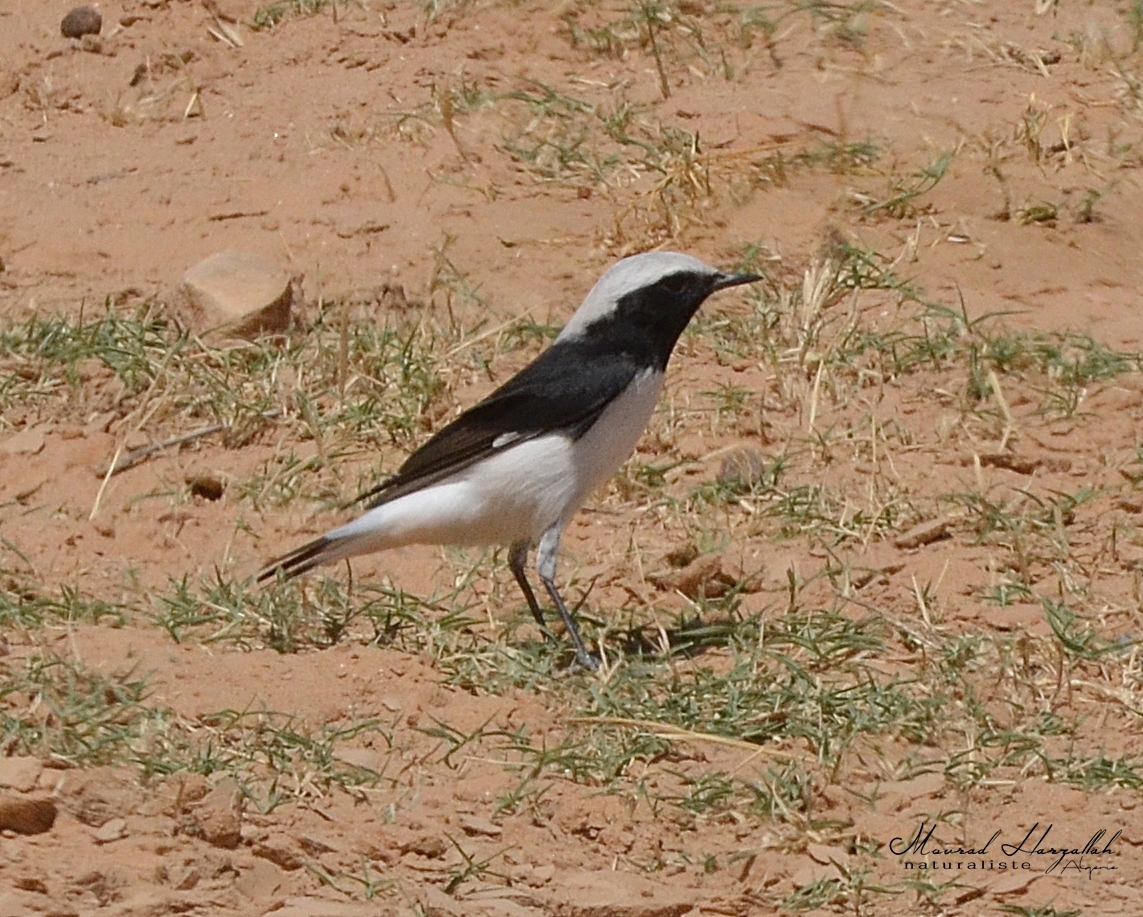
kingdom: Animalia
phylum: Chordata
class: Aves
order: Passeriformes
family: Muscicapidae
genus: Oenanthe
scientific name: Oenanthe lugens
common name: Mourning wheatear
